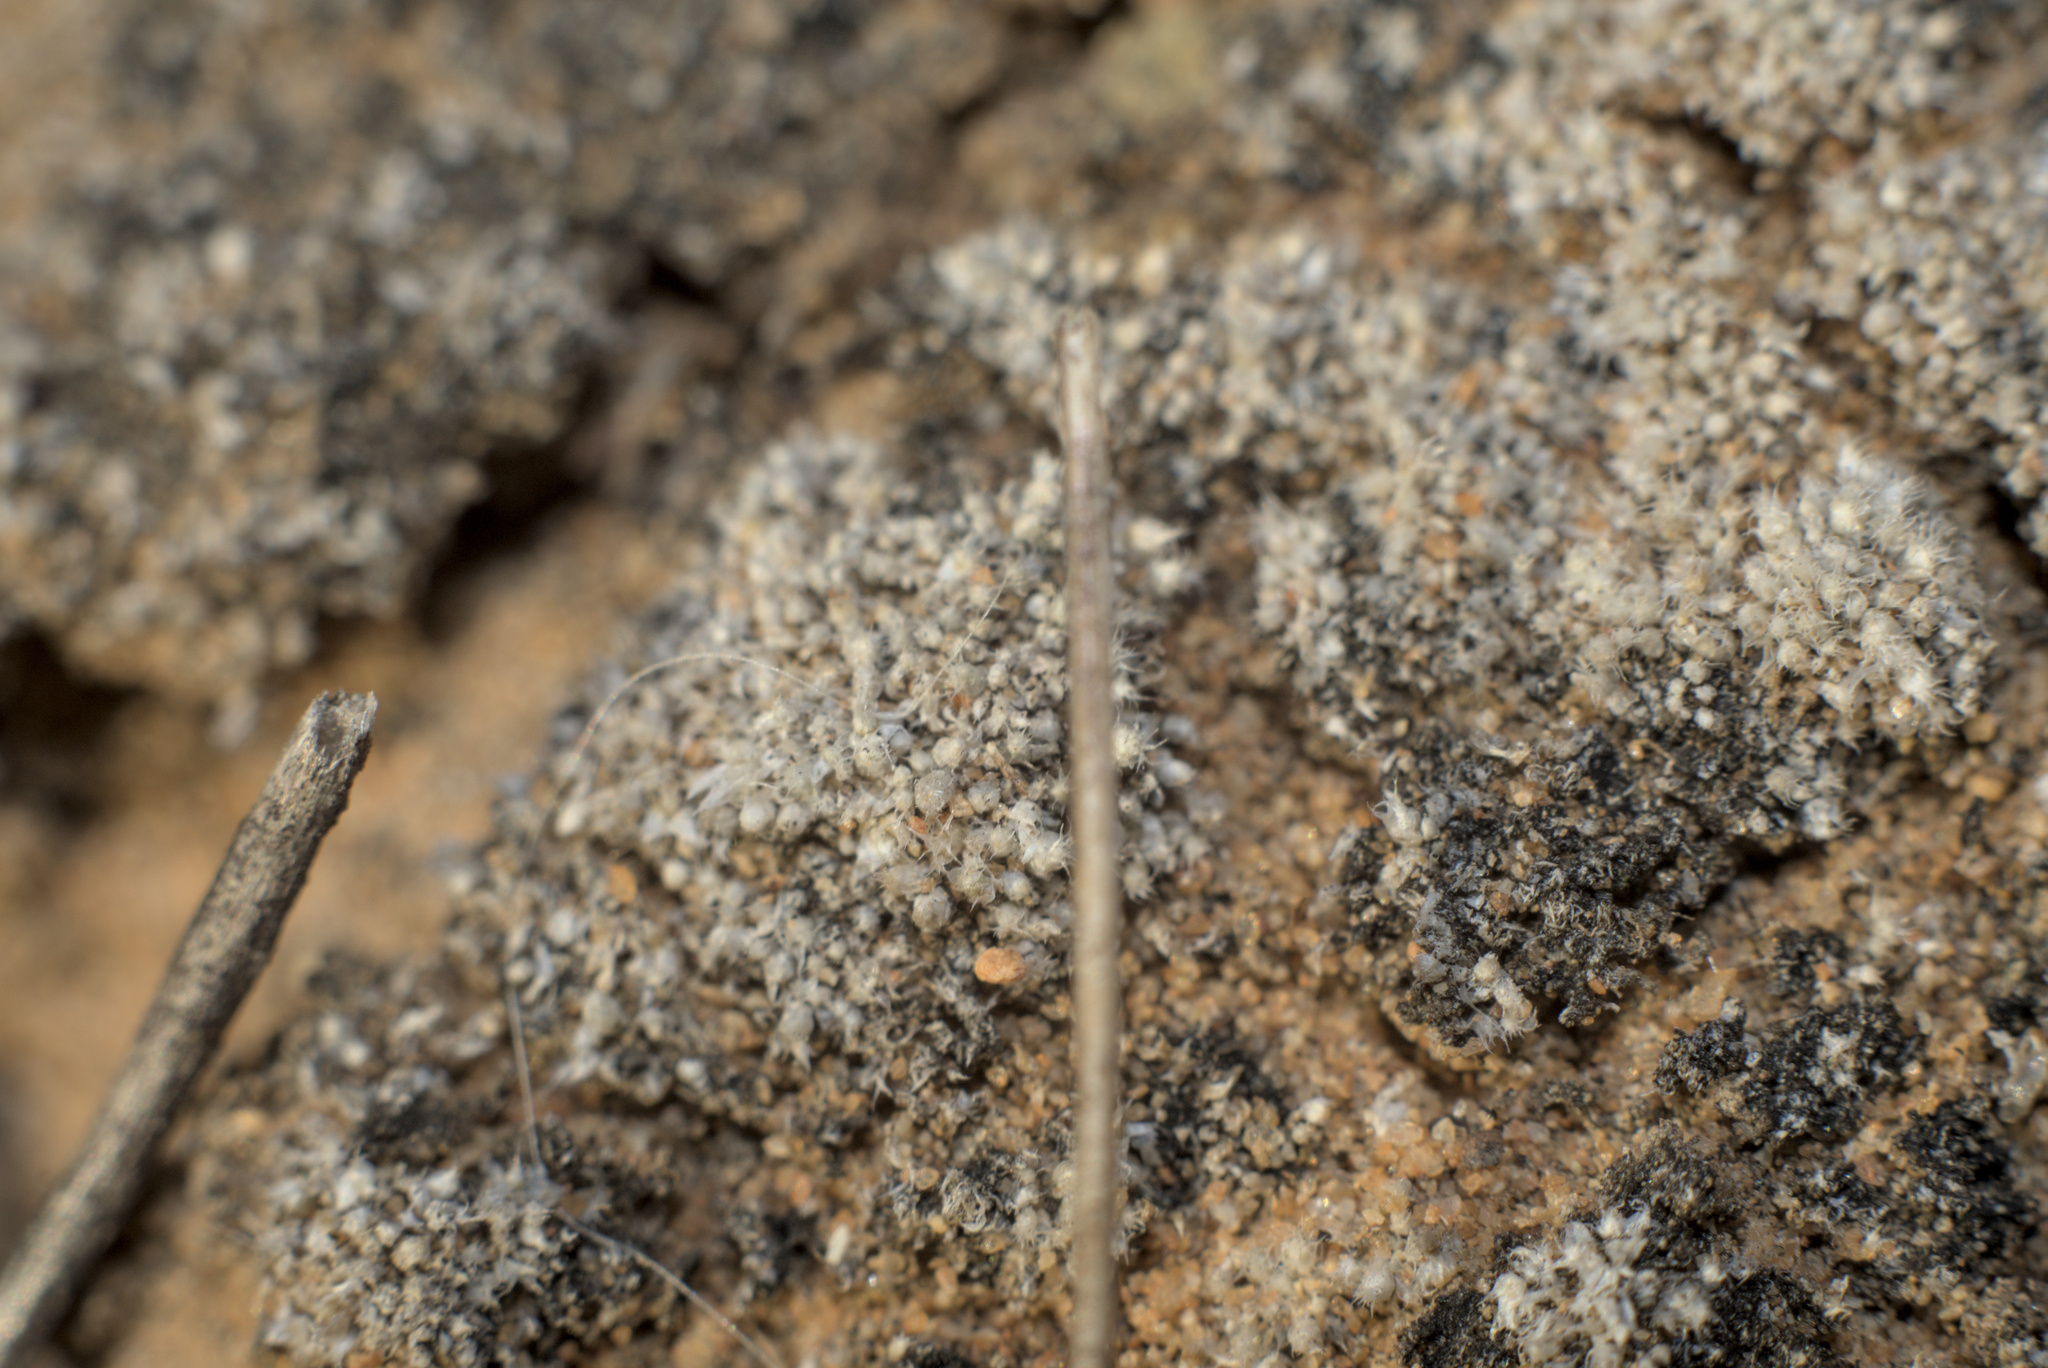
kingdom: Plantae
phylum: Bryophyta
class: Bryopsida
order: Bryales
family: Bryaceae
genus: Bryum
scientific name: Bryum lanatum
